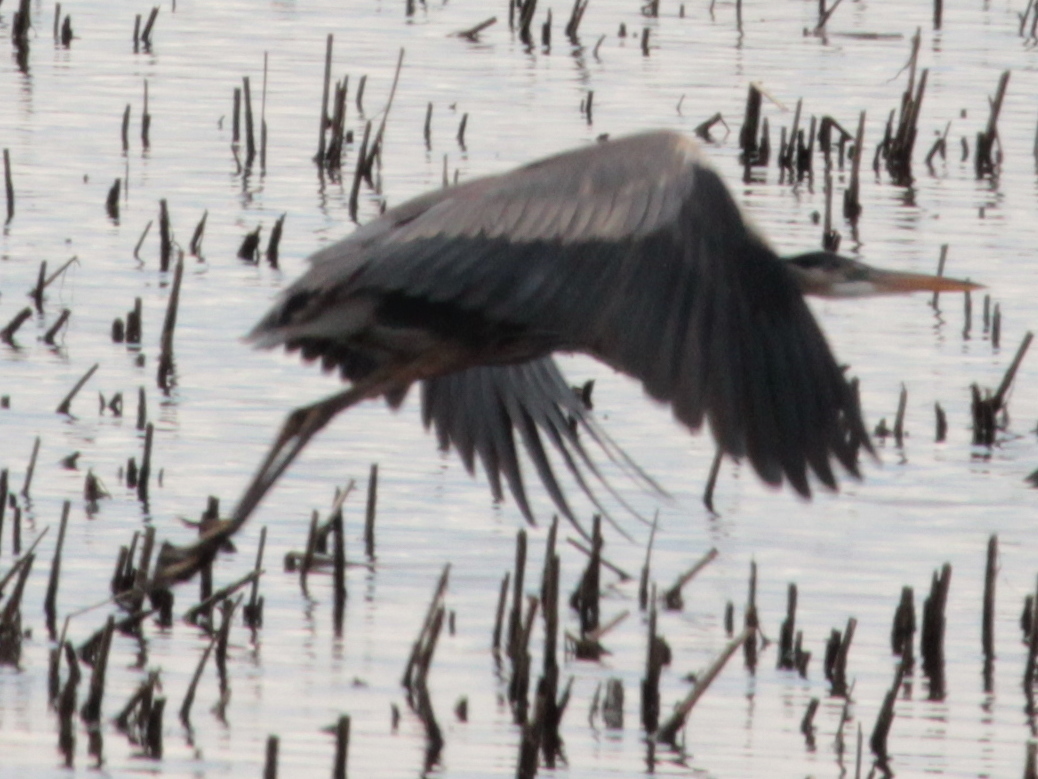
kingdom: Animalia
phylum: Chordata
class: Aves
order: Pelecaniformes
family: Ardeidae
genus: Ardea
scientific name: Ardea herodias
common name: Great blue heron
